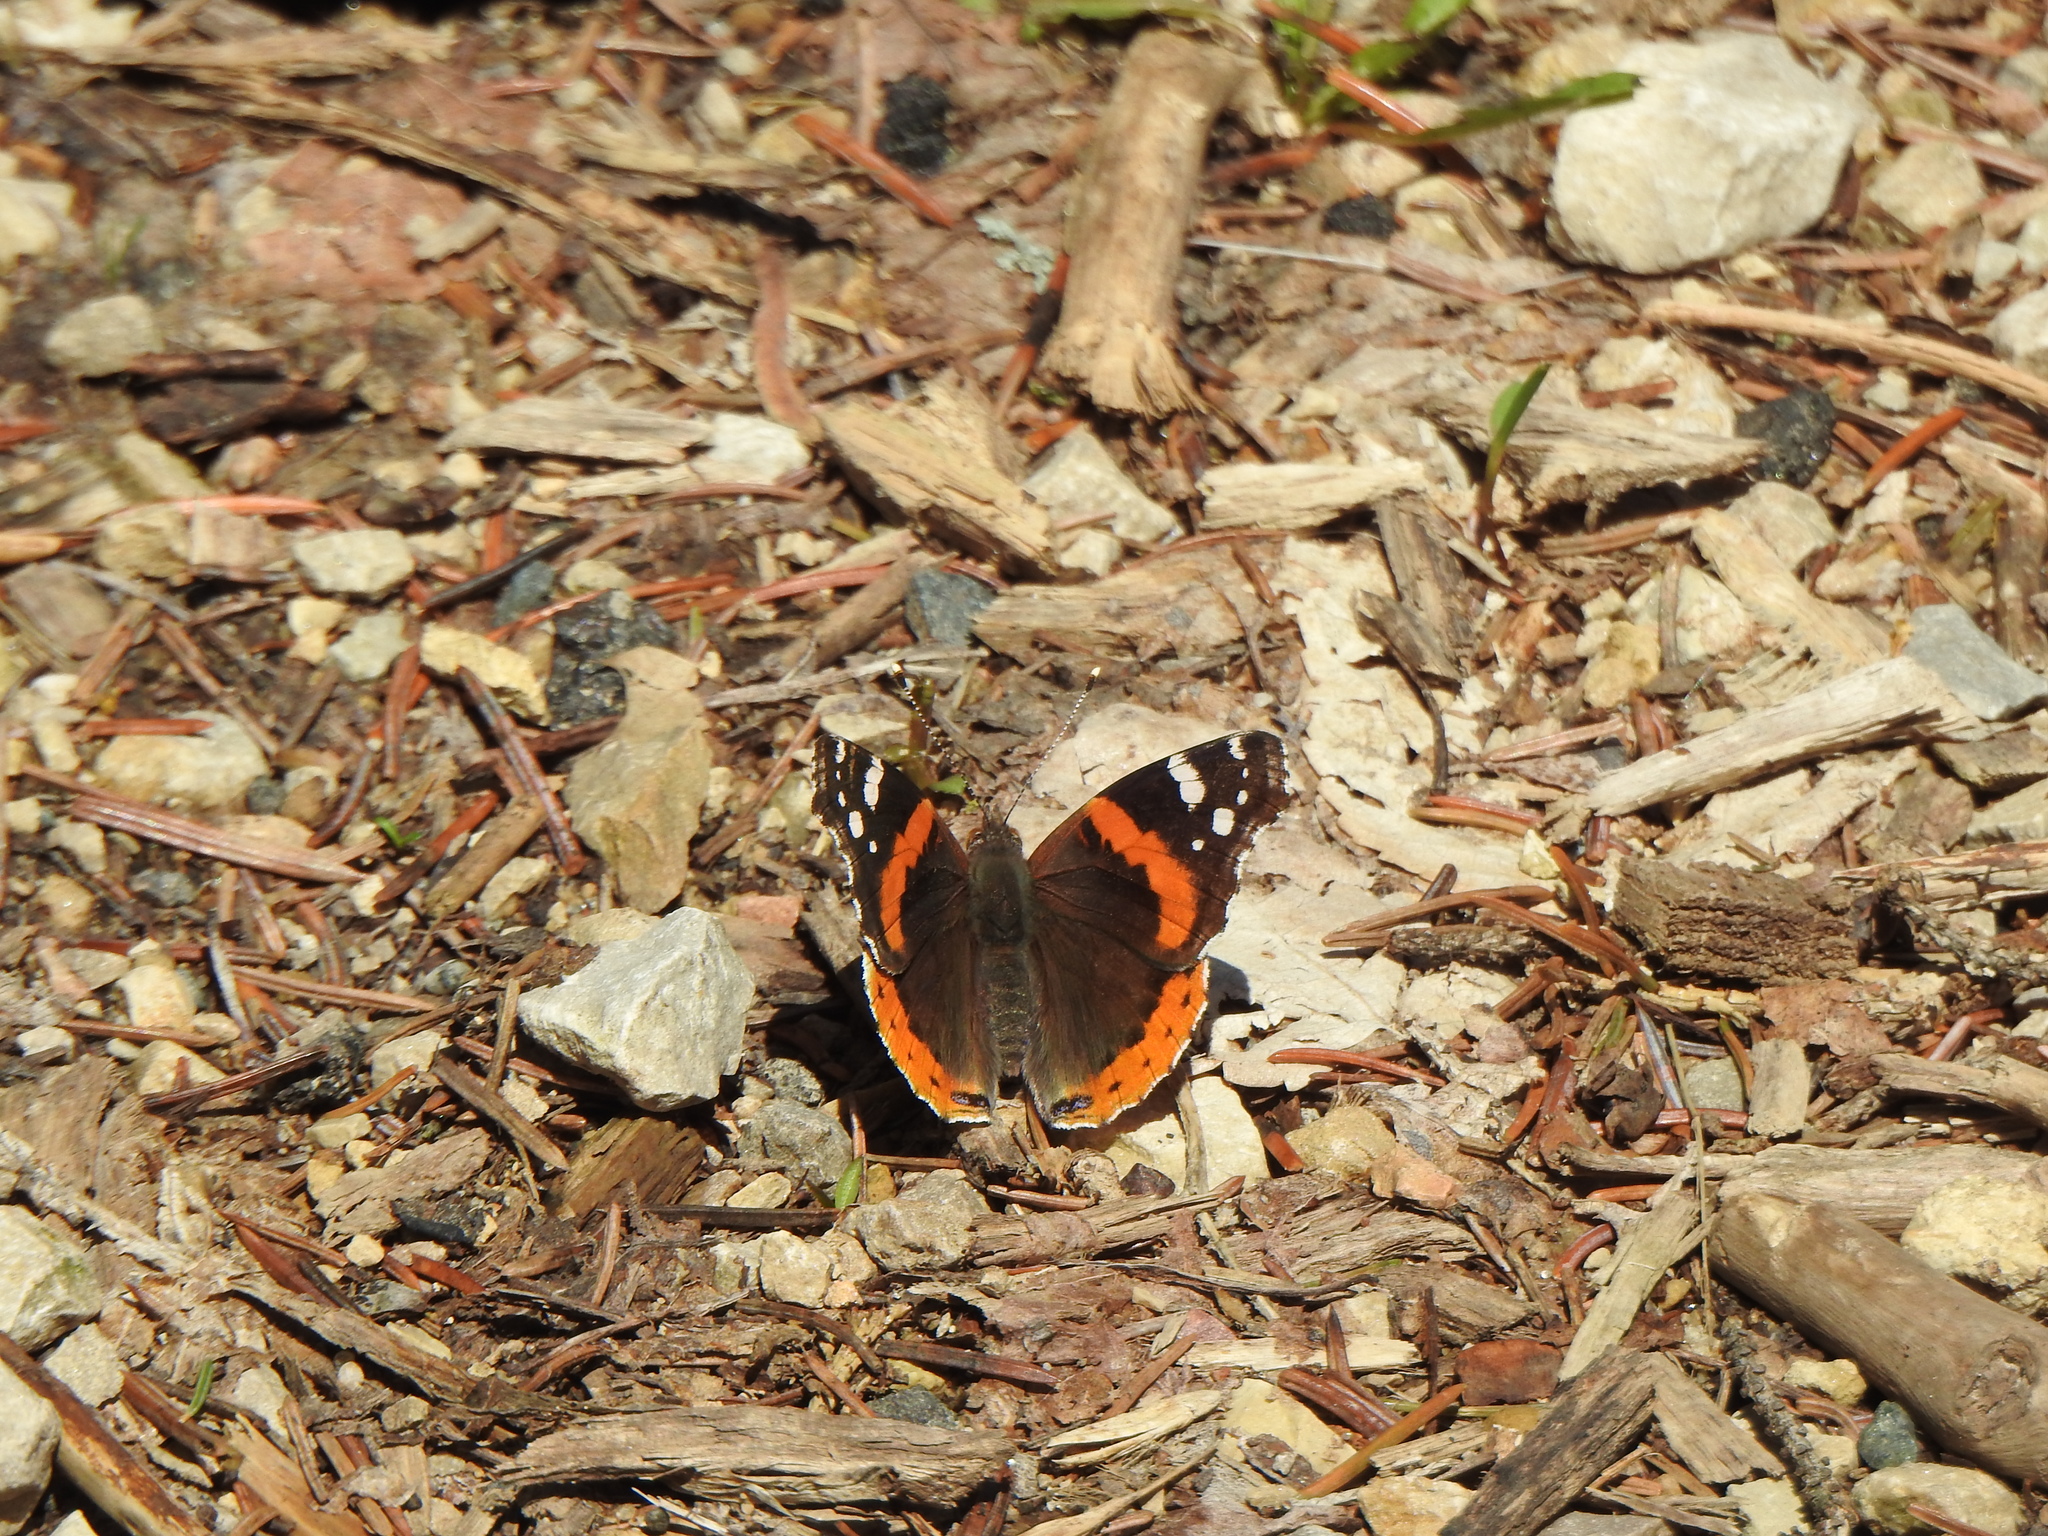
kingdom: Animalia
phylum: Arthropoda
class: Insecta
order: Lepidoptera
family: Nymphalidae
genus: Vanessa
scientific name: Vanessa atalanta
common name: Red admiral
